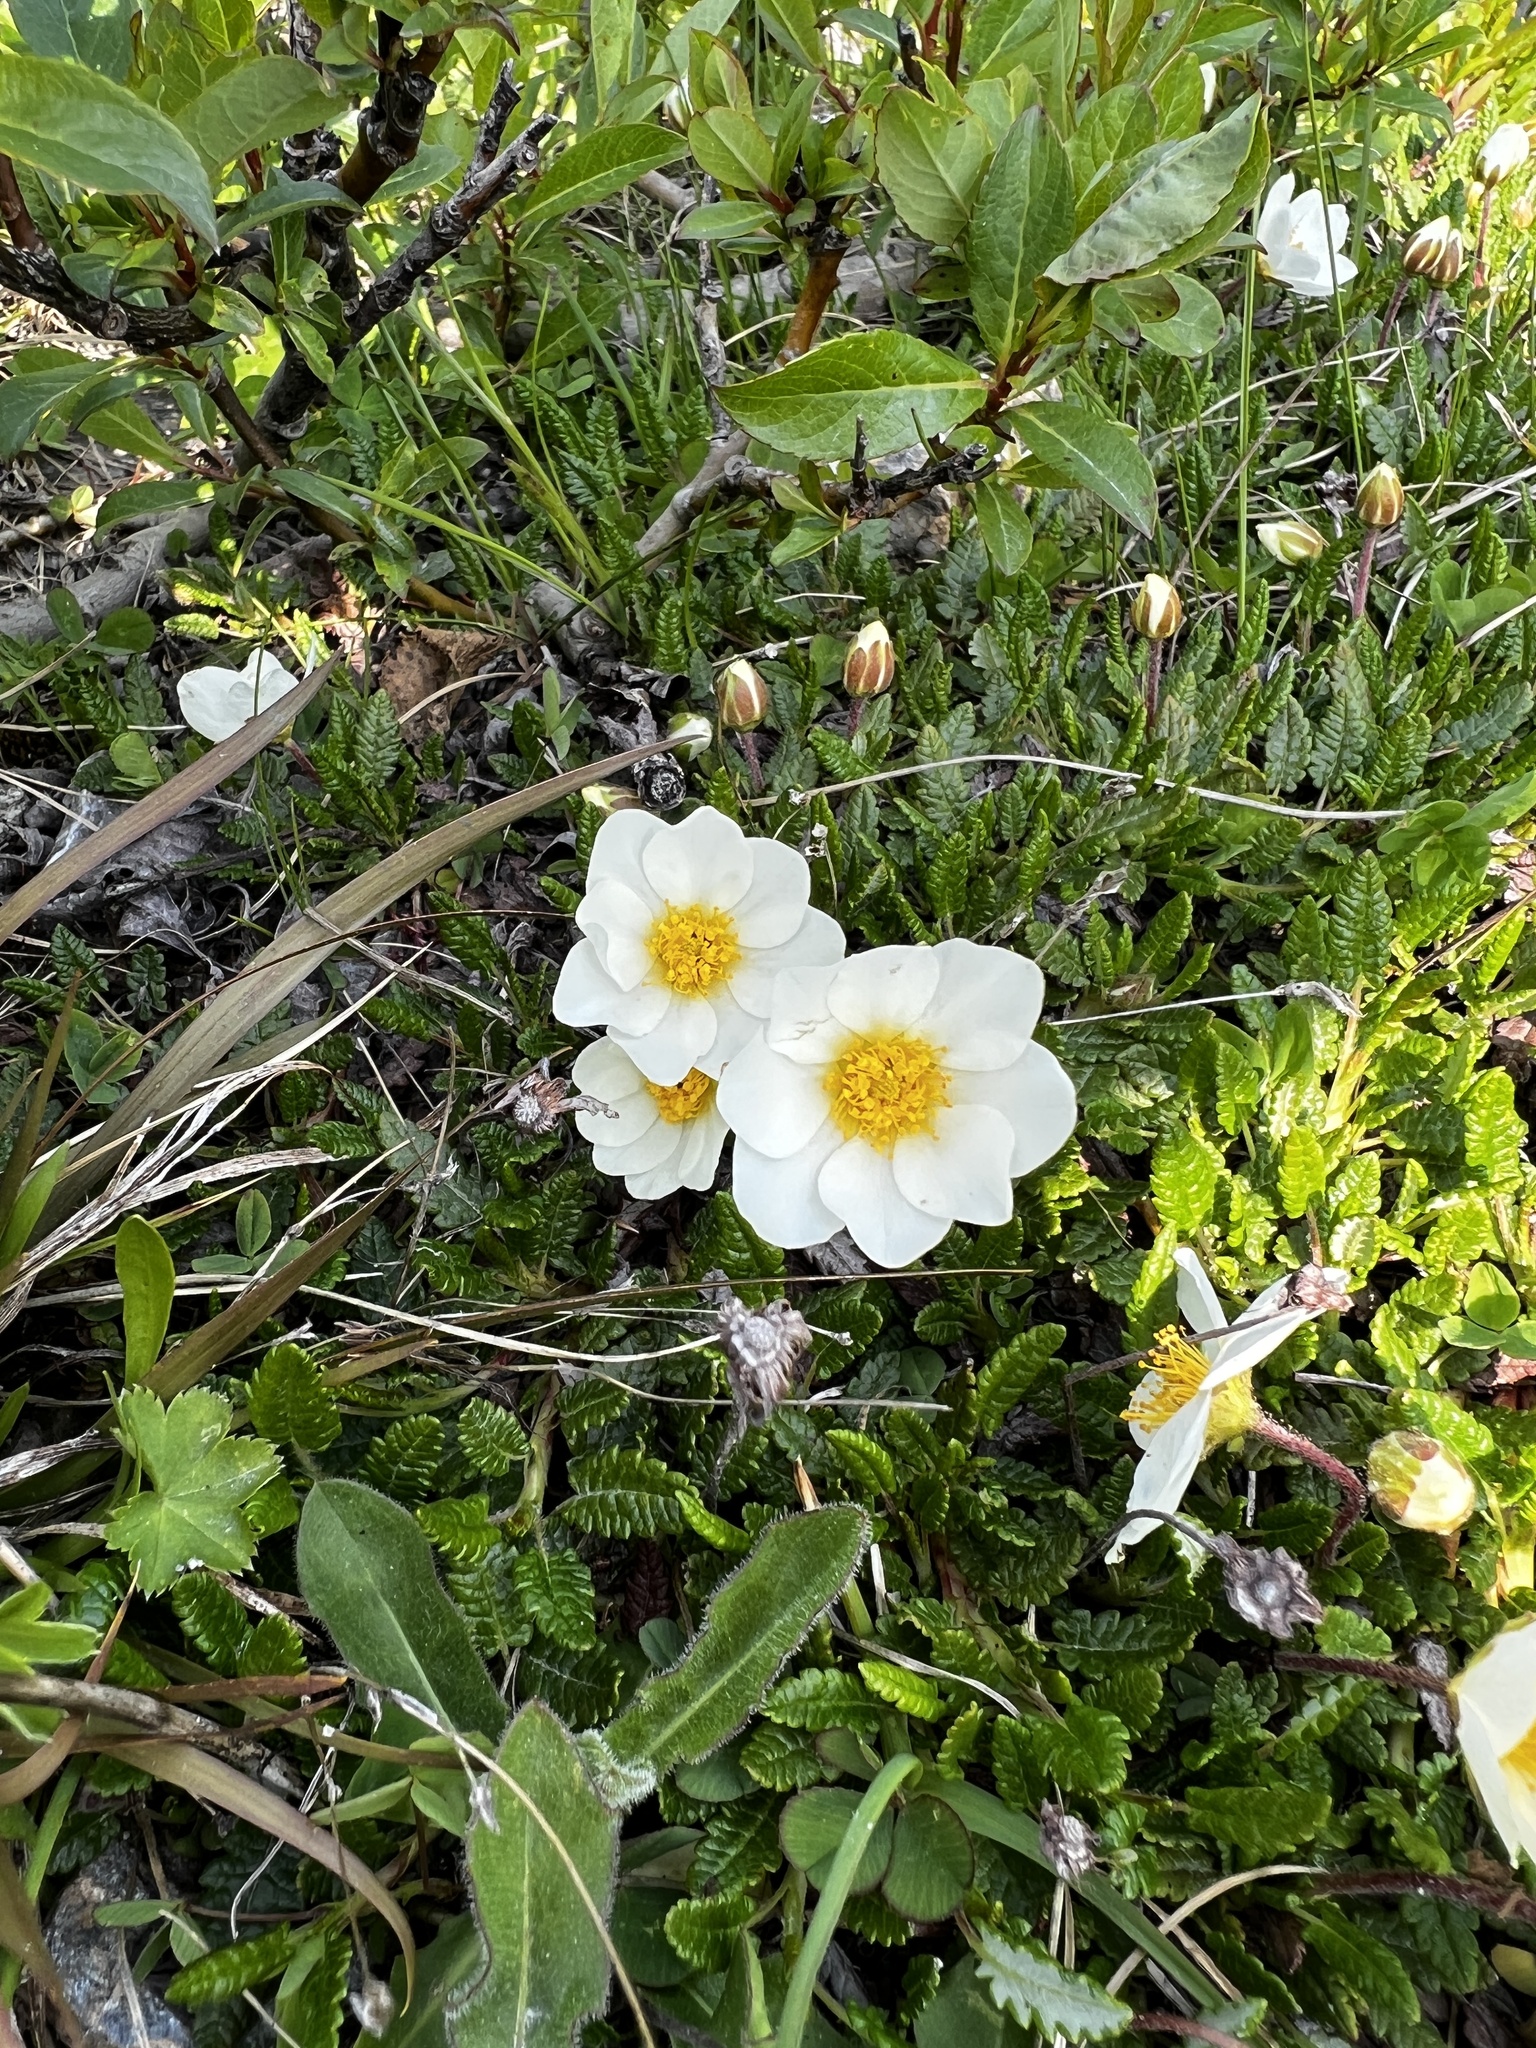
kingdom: Plantae
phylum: Tracheophyta
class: Magnoliopsida
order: Rosales
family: Rosaceae
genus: Dryas
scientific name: Dryas octopetala
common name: Eight-petal mountain-avens
